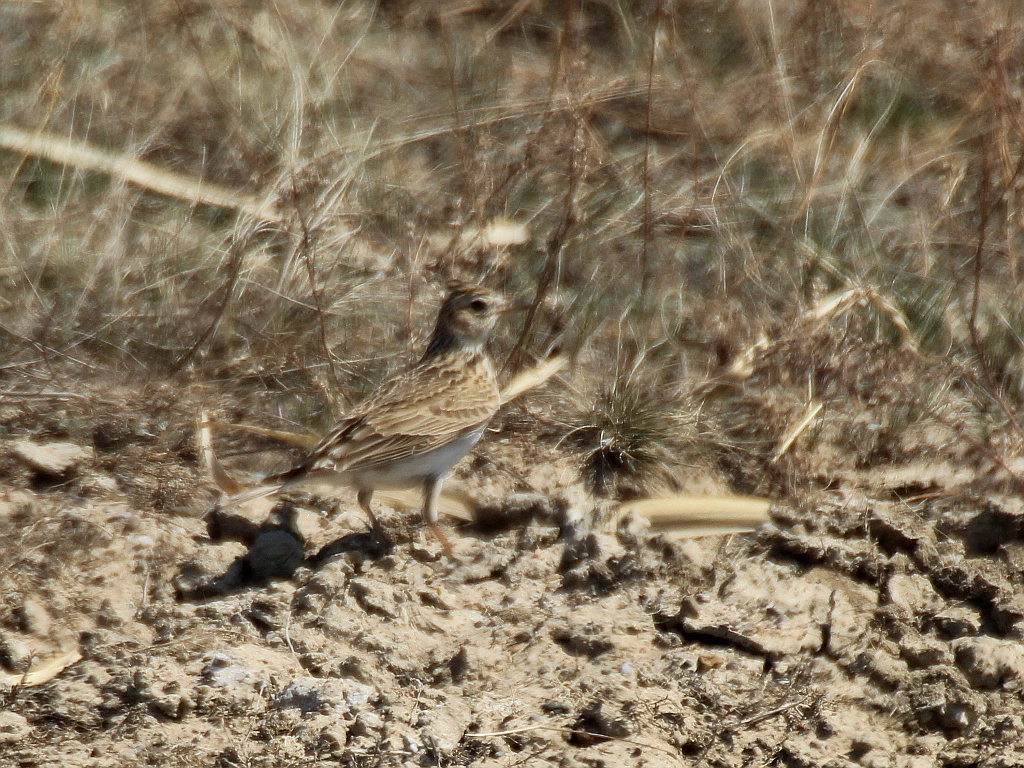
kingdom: Animalia
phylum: Chordata
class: Aves
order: Passeriformes
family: Alaudidae
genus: Alauda
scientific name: Alauda arvensis
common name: Eurasian skylark
